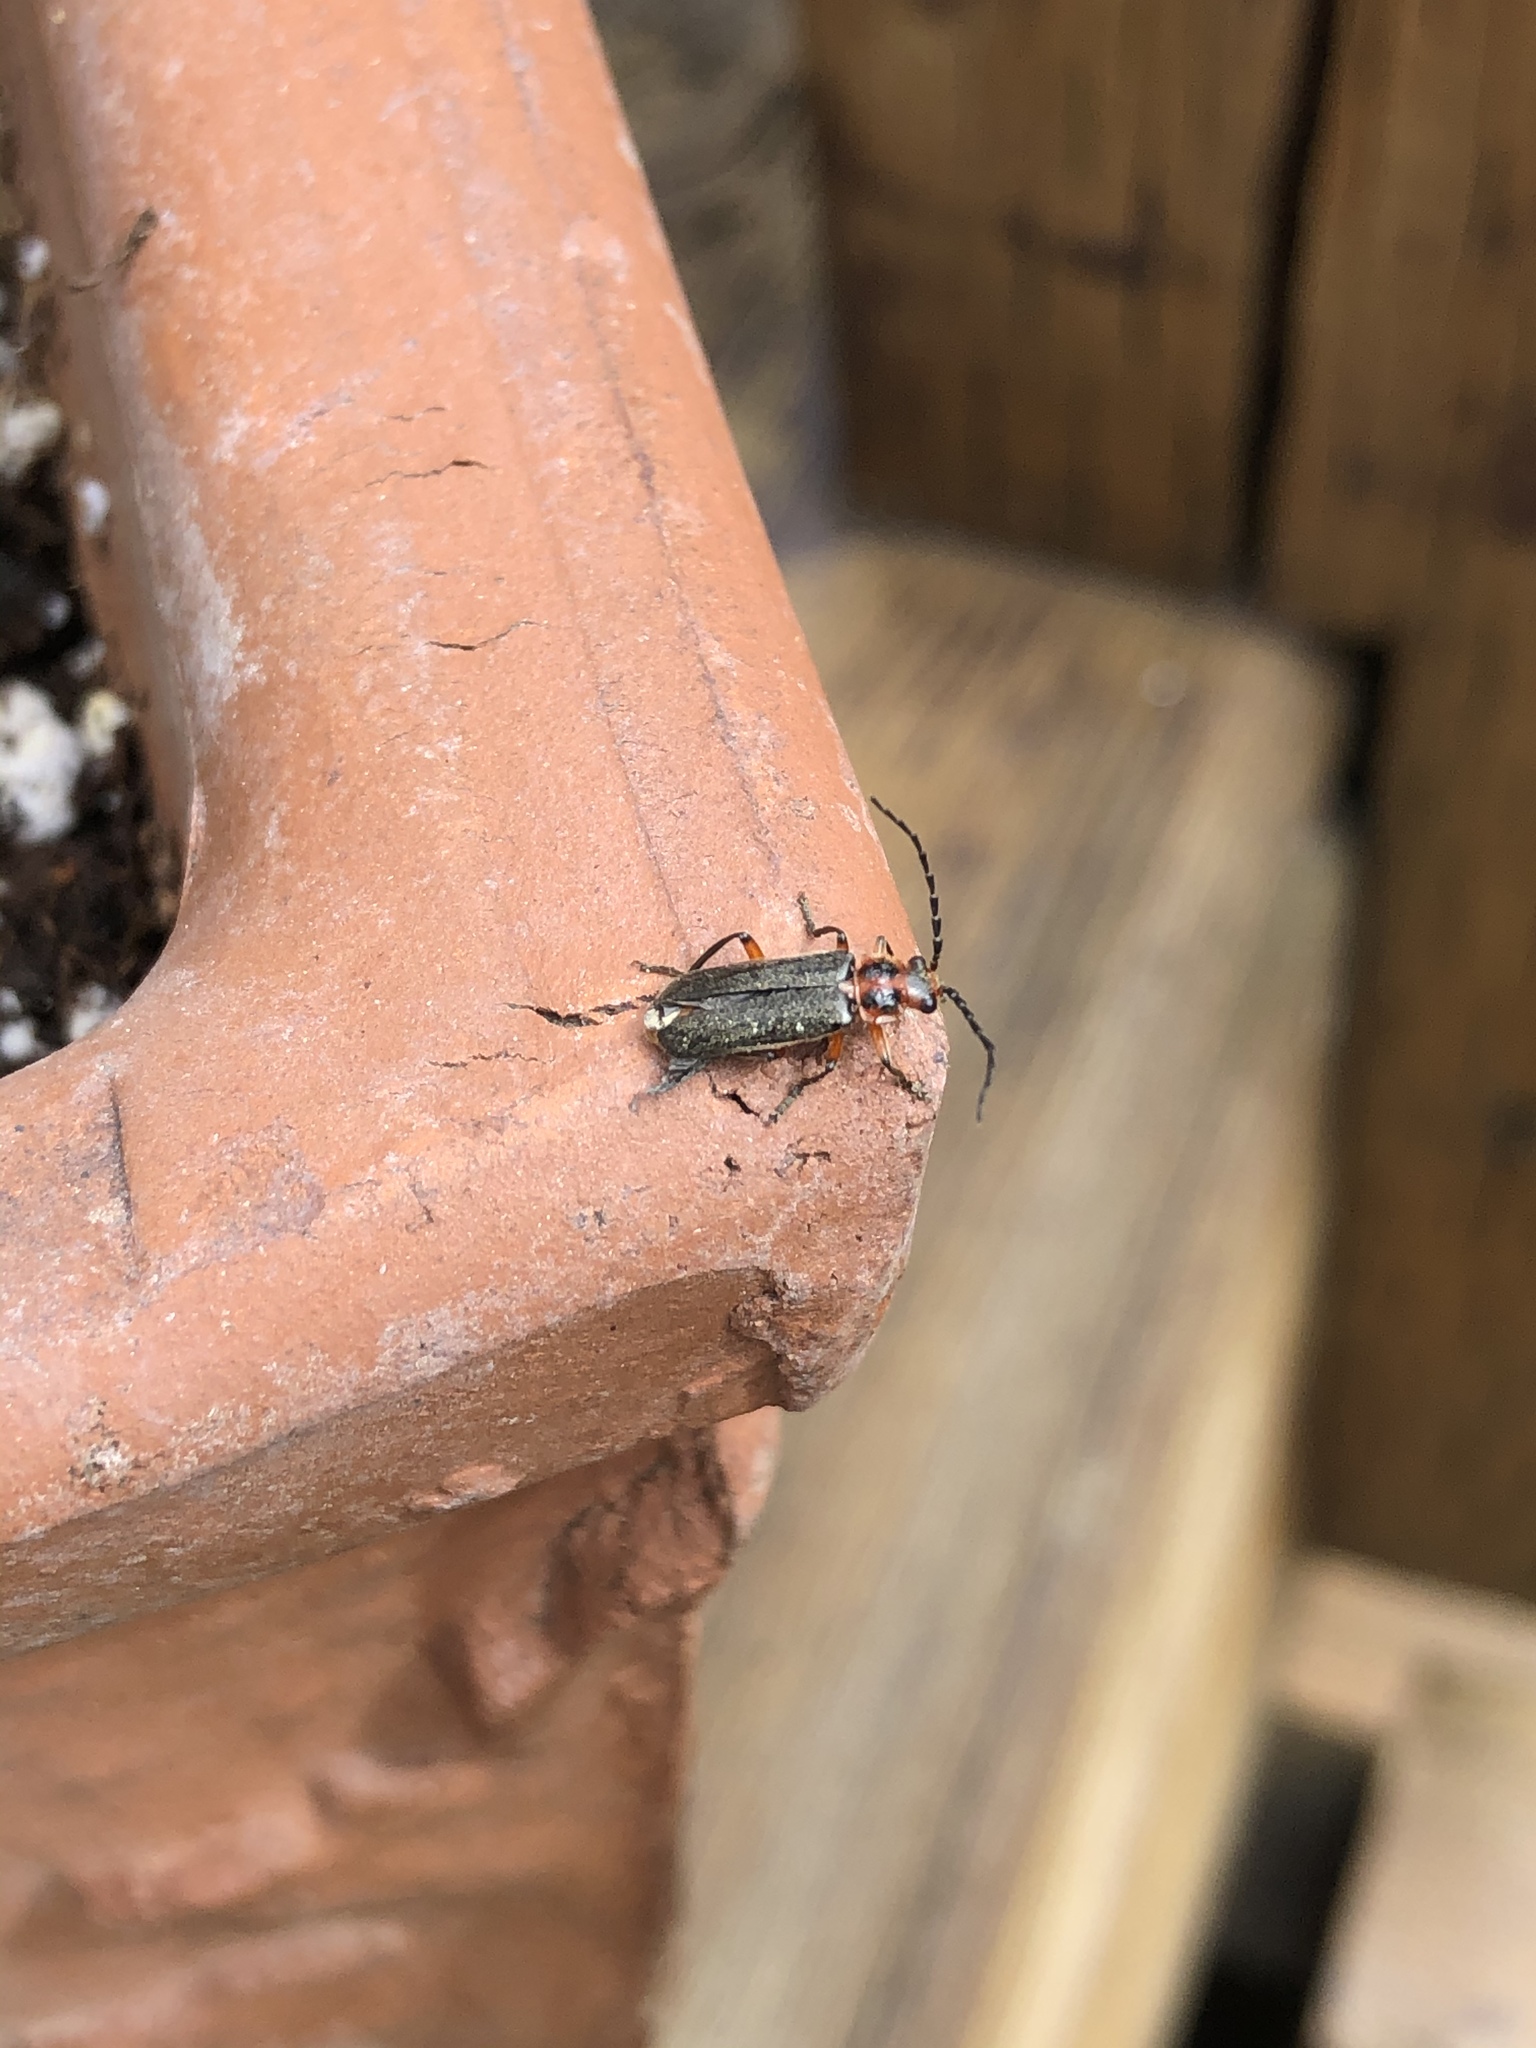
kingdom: Animalia
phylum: Arthropoda
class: Insecta
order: Coleoptera
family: Cantharidae
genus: Atalantycha
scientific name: Atalantycha bilineata
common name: Two-lined leatherwing
